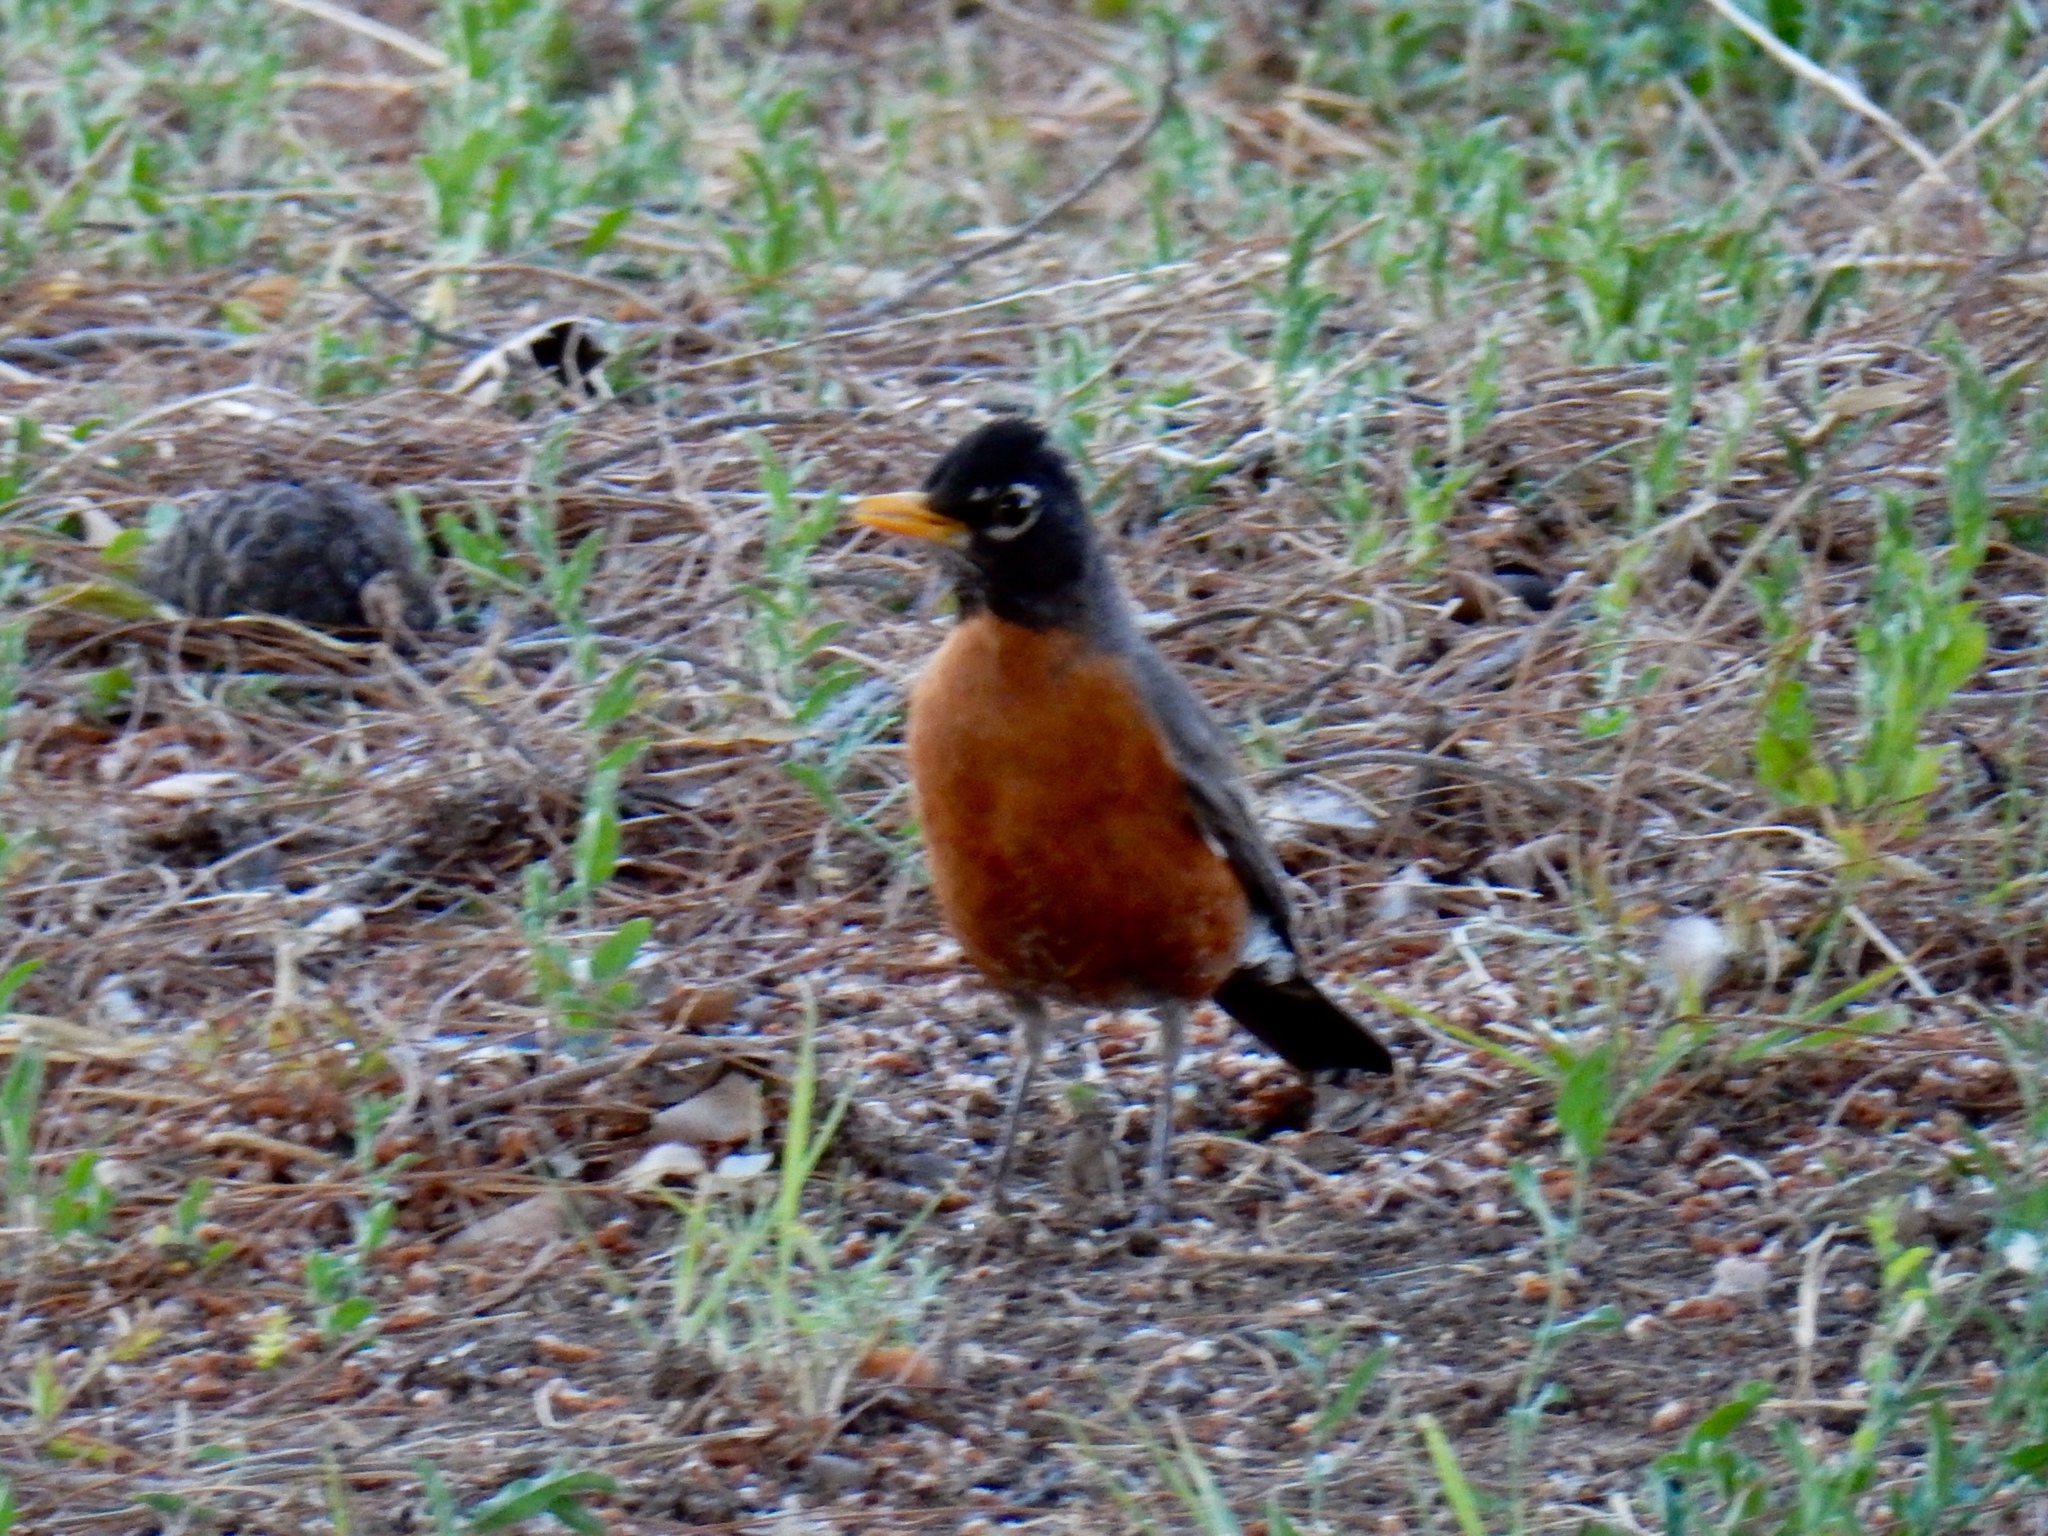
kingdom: Animalia
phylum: Chordata
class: Aves
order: Passeriformes
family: Turdidae
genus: Turdus
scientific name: Turdus migratorius
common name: American robin
